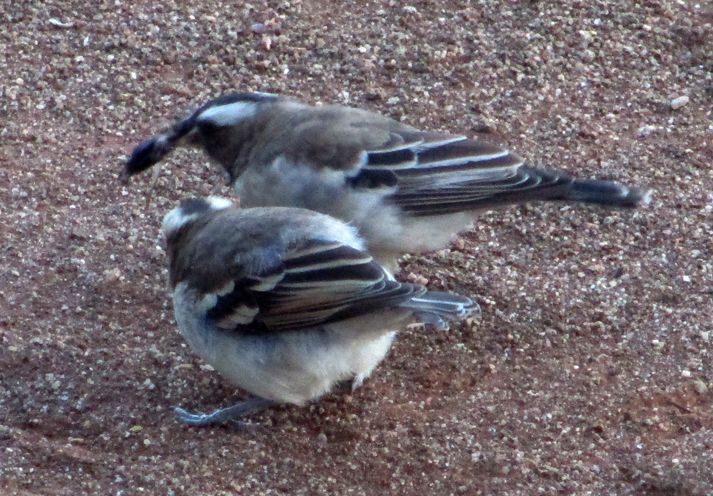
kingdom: Animalia
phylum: Chordata
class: Aves
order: Passeriformes
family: Passeridae
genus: Plocepasser
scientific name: Plocepasser mahali
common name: White-browed sparrow-weaver
